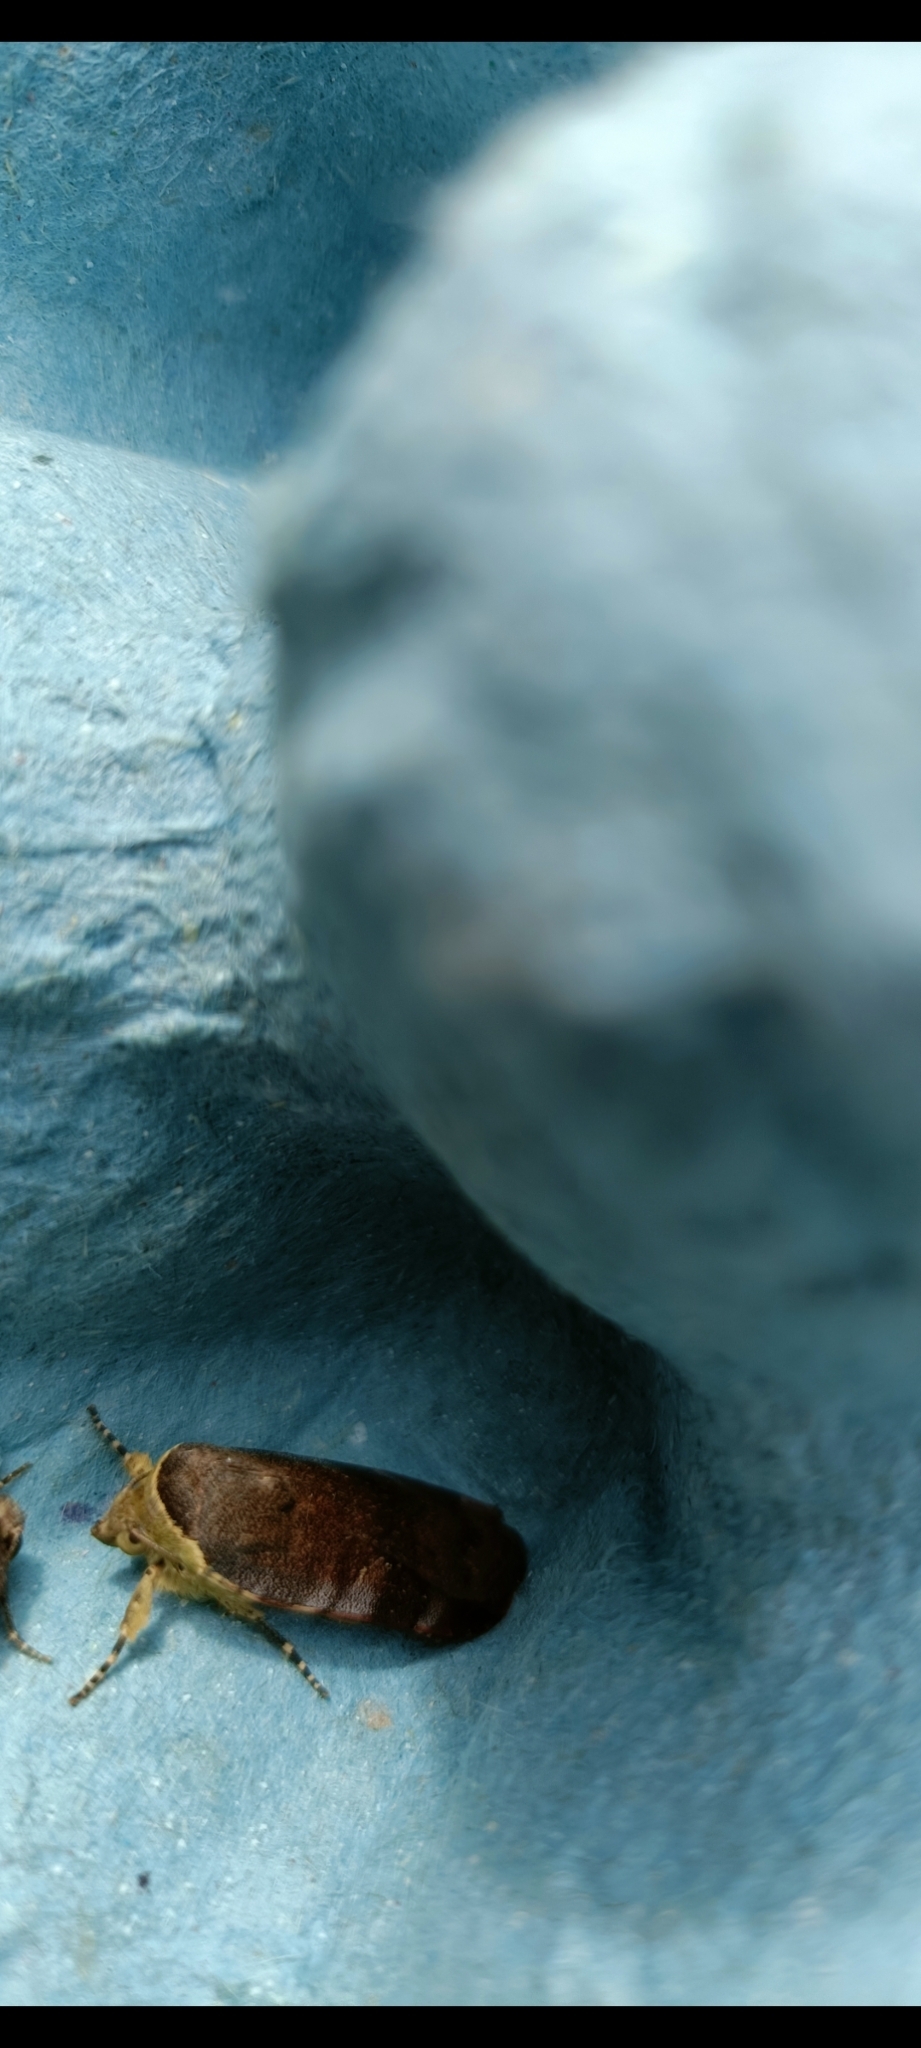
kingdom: Animalia
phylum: Arthropoda
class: Insecta
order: Lepidoptera
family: Noctuidae
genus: Noctua
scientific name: Noctua janthe
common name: Lesser broad-bordered yellow underwing
